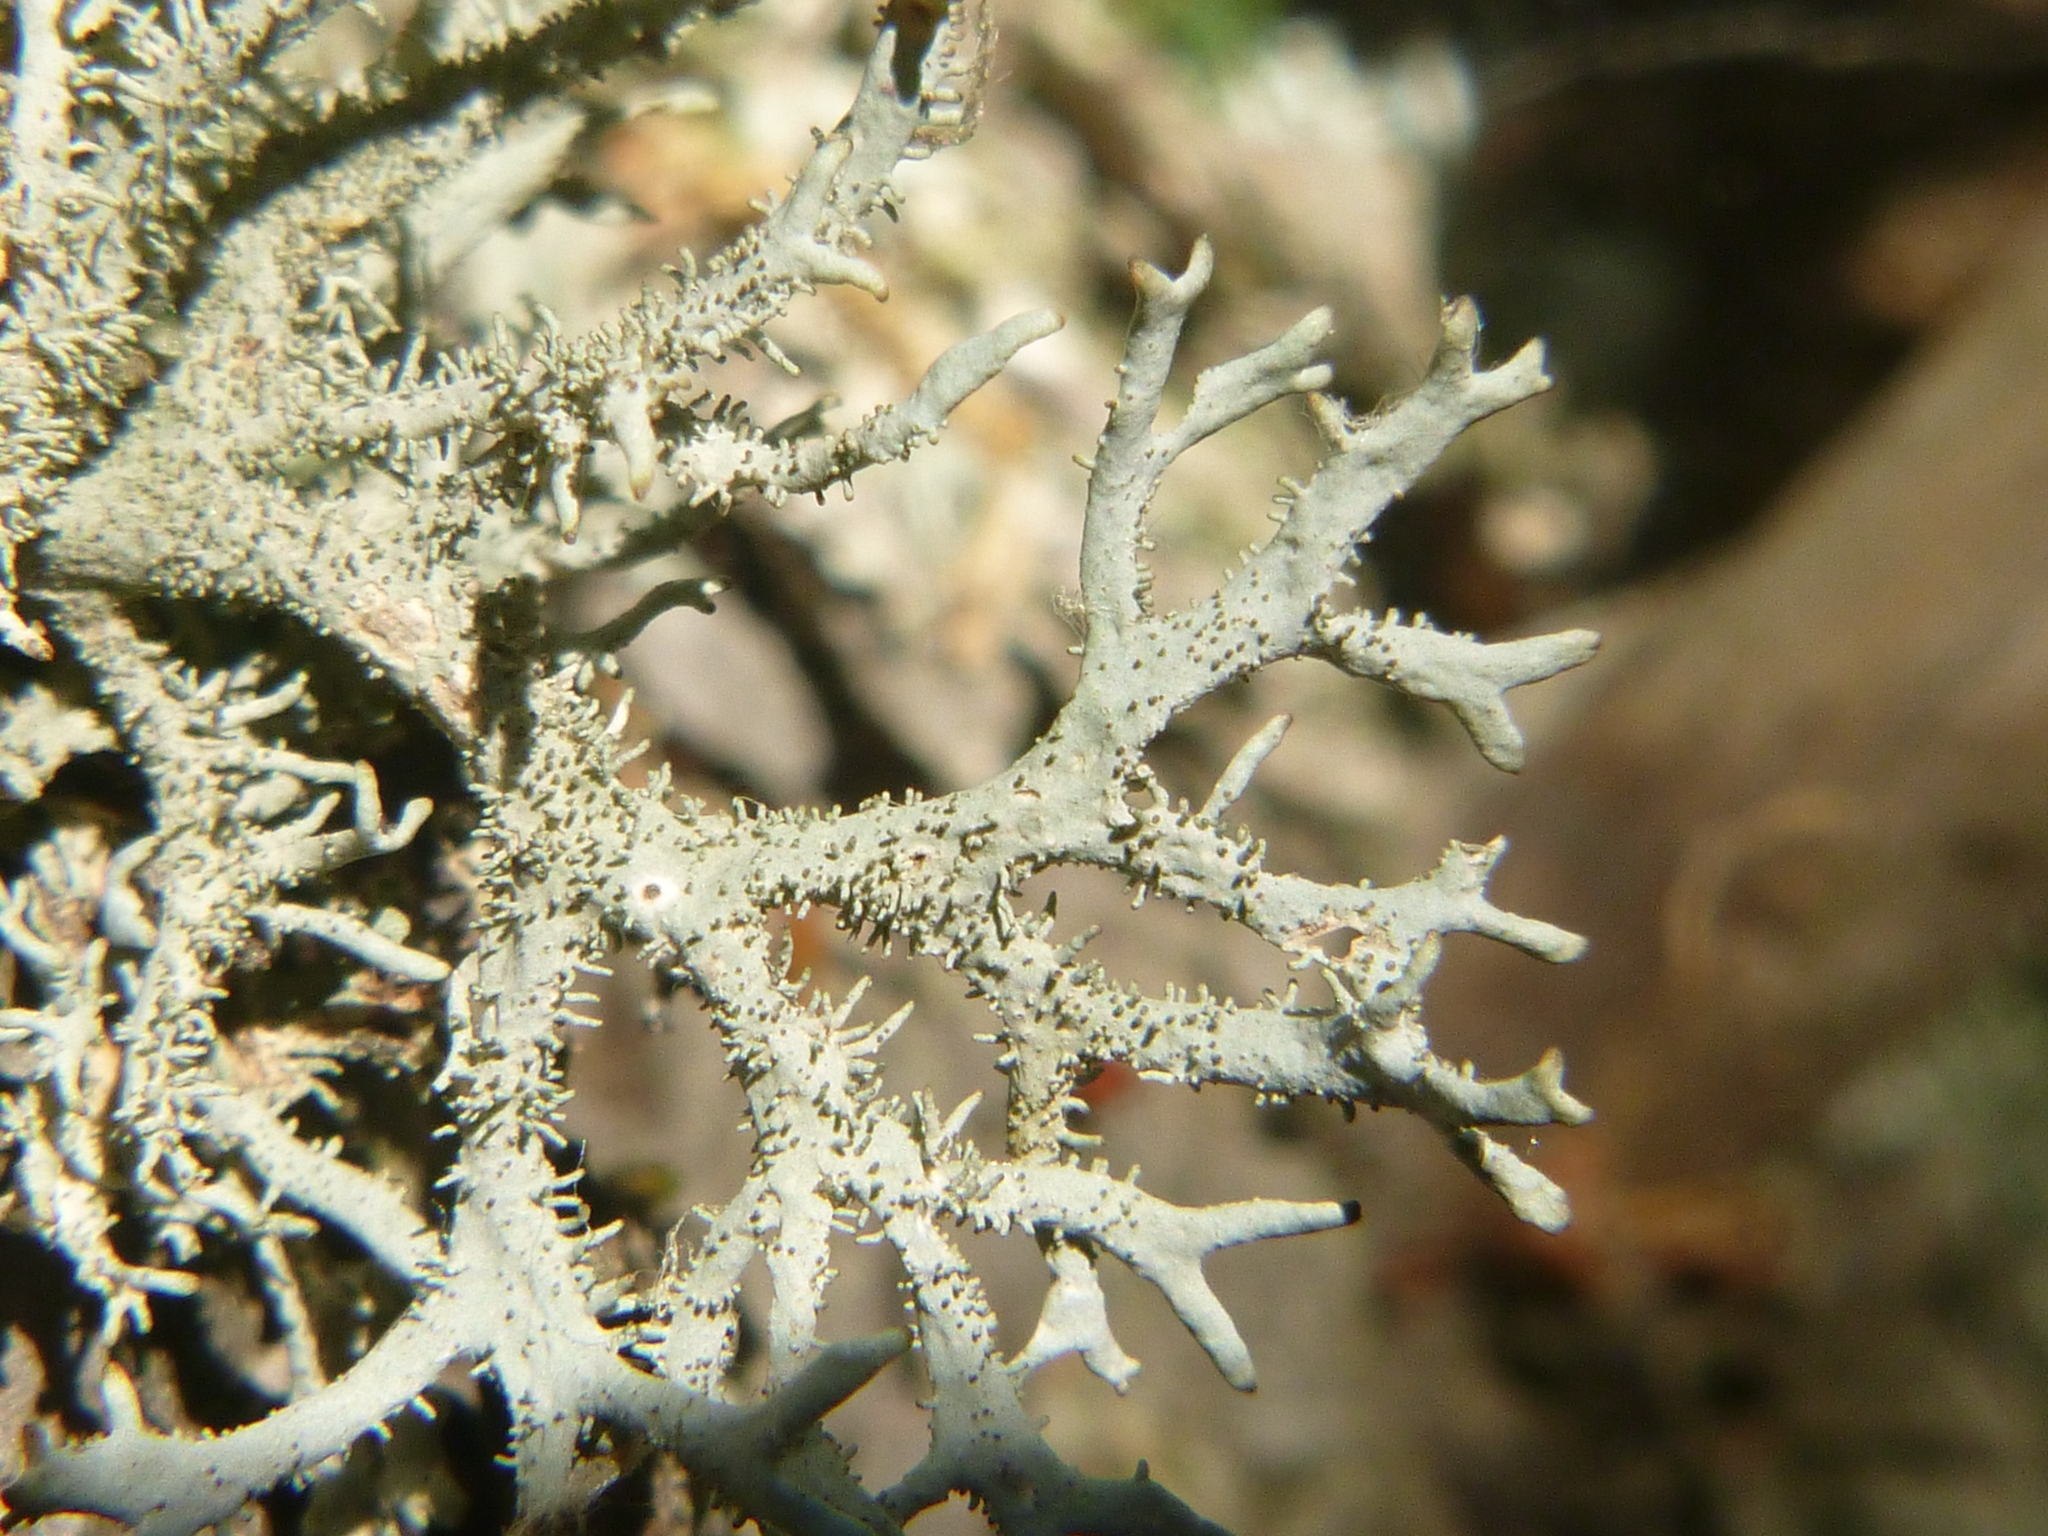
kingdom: Fungi
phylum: Ascomycota
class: Lecanoromycetes
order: Lecanorales
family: Parmeliaceae
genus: Pseudevernia
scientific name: Pseudevernia furfuracea
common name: Tree moss
